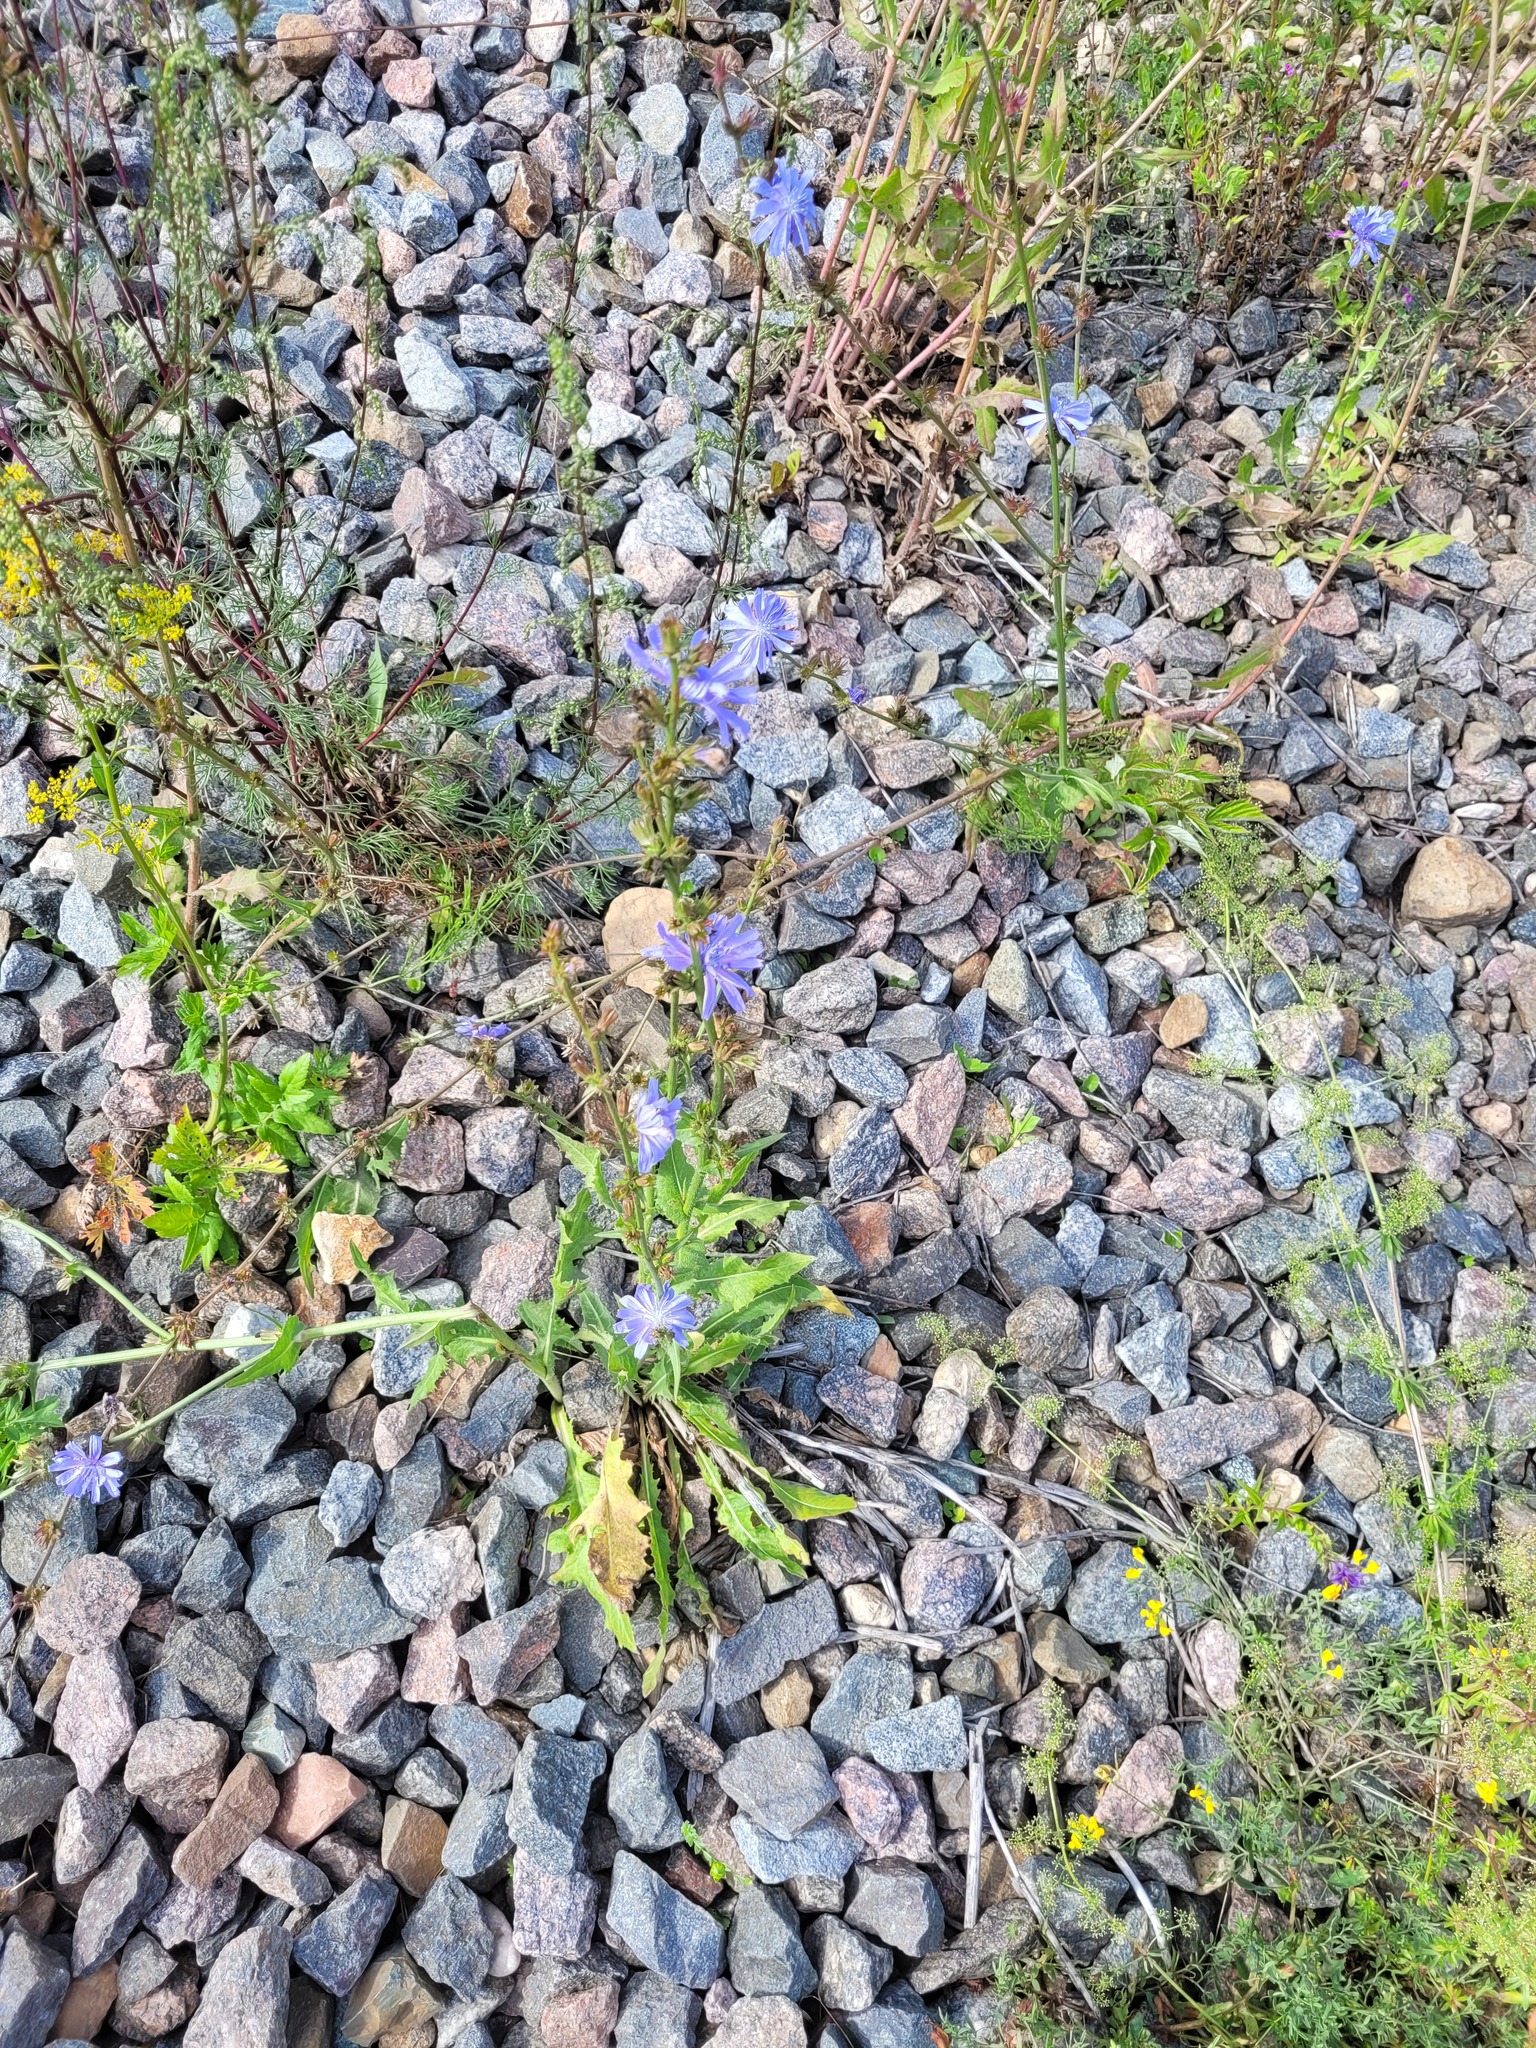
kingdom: Plantae
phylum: Tracheophyta
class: Magnoliopsida
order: Asterales
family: Asteraceae
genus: Cichorium
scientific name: Cichorium intybus
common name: Chicory
